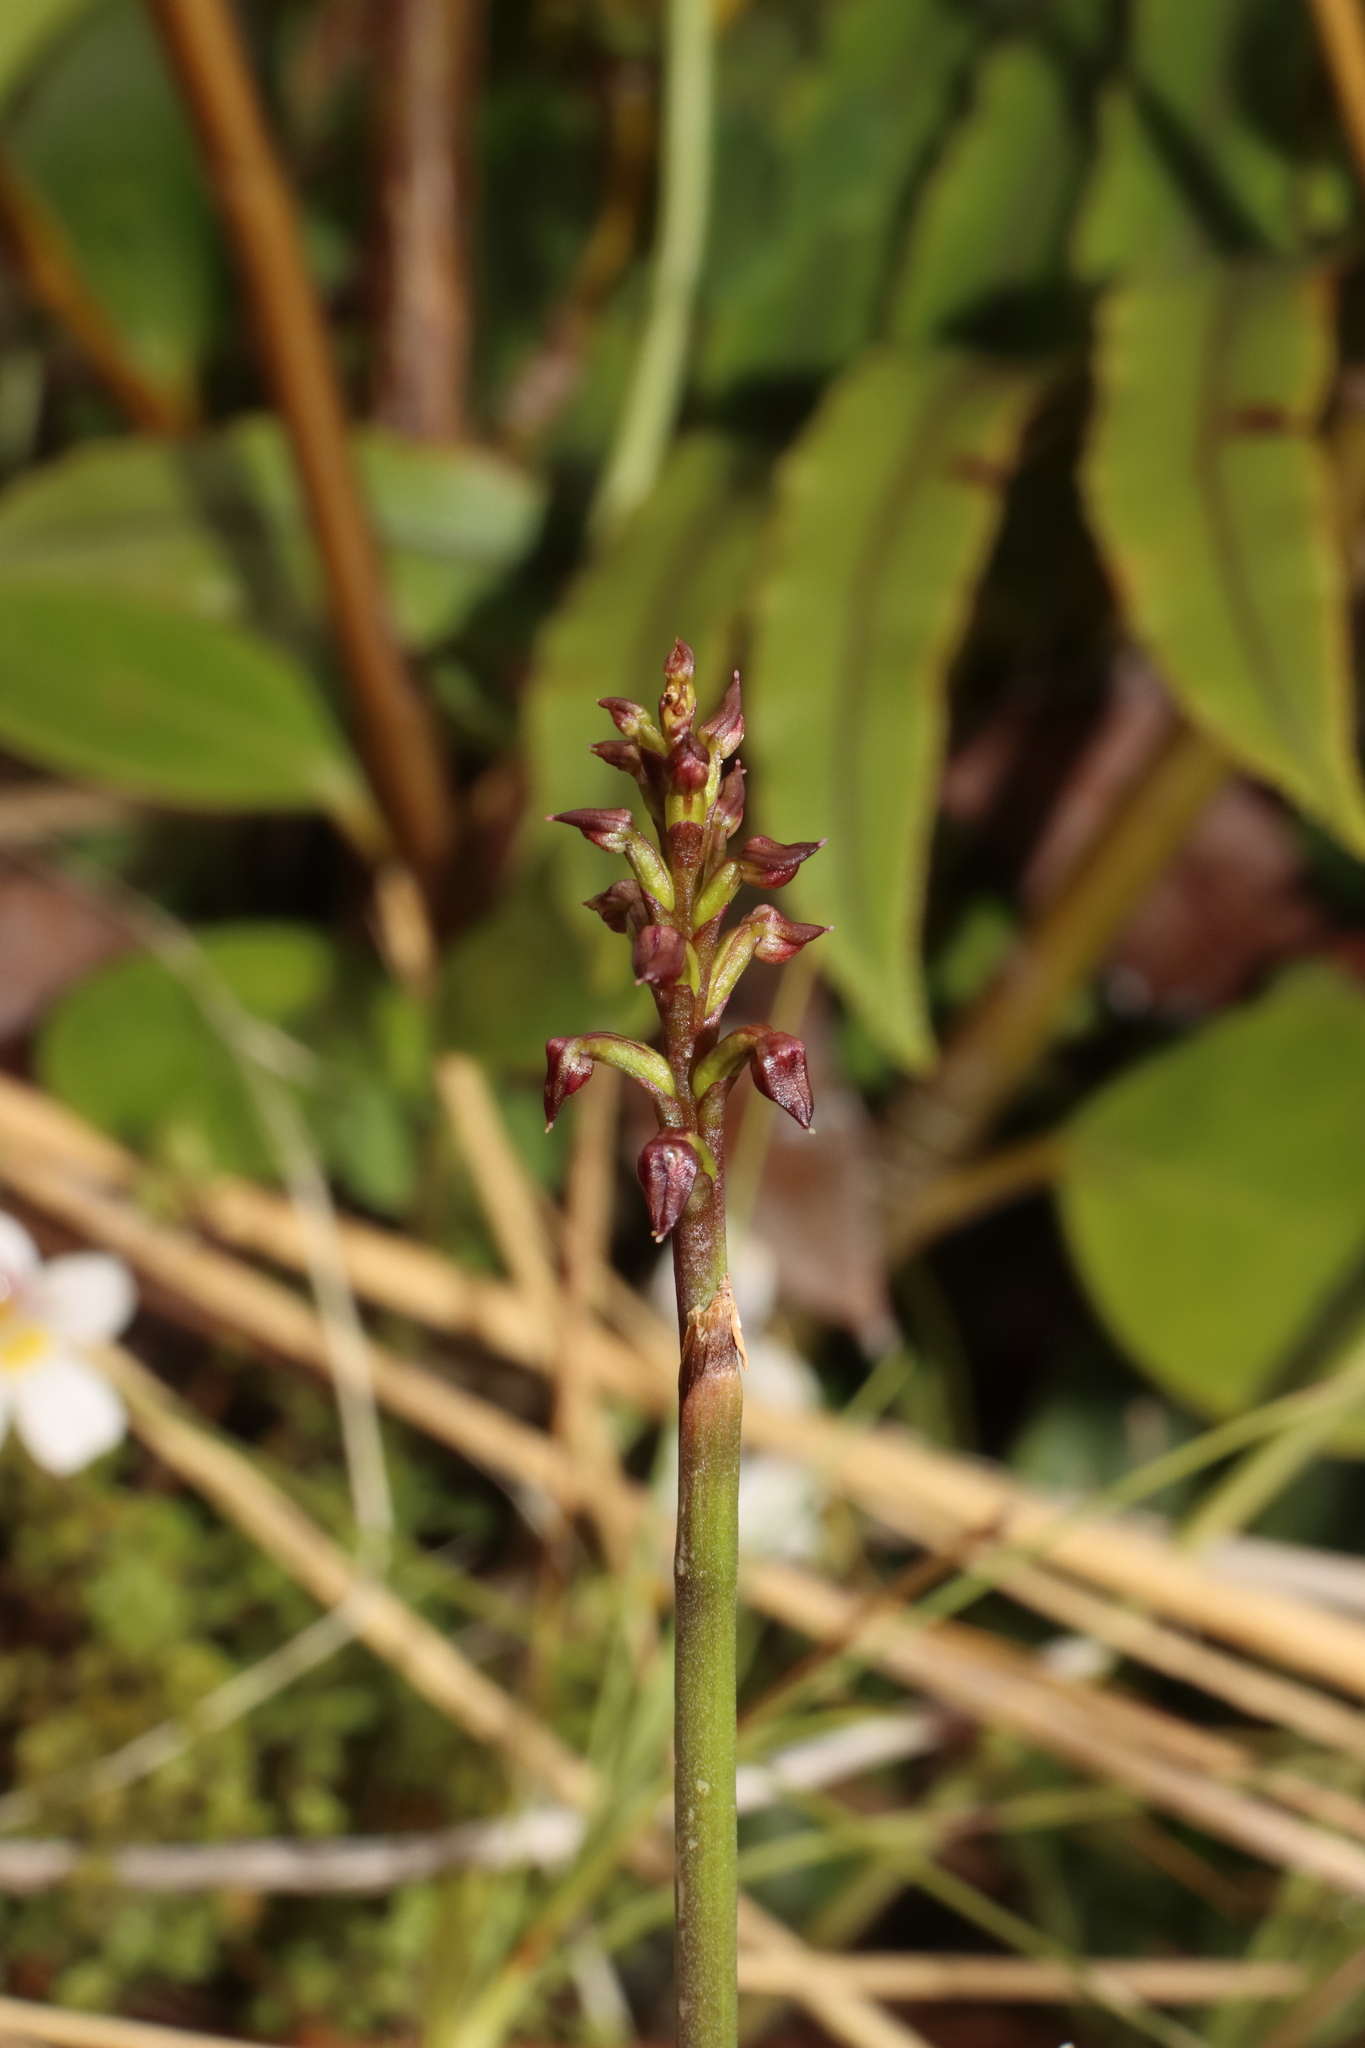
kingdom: Plantae
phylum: Tracheophyta
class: Liliopsida
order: Asparagales
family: Orchidaceae
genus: Genoplesium
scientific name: Genoplesium nudum
